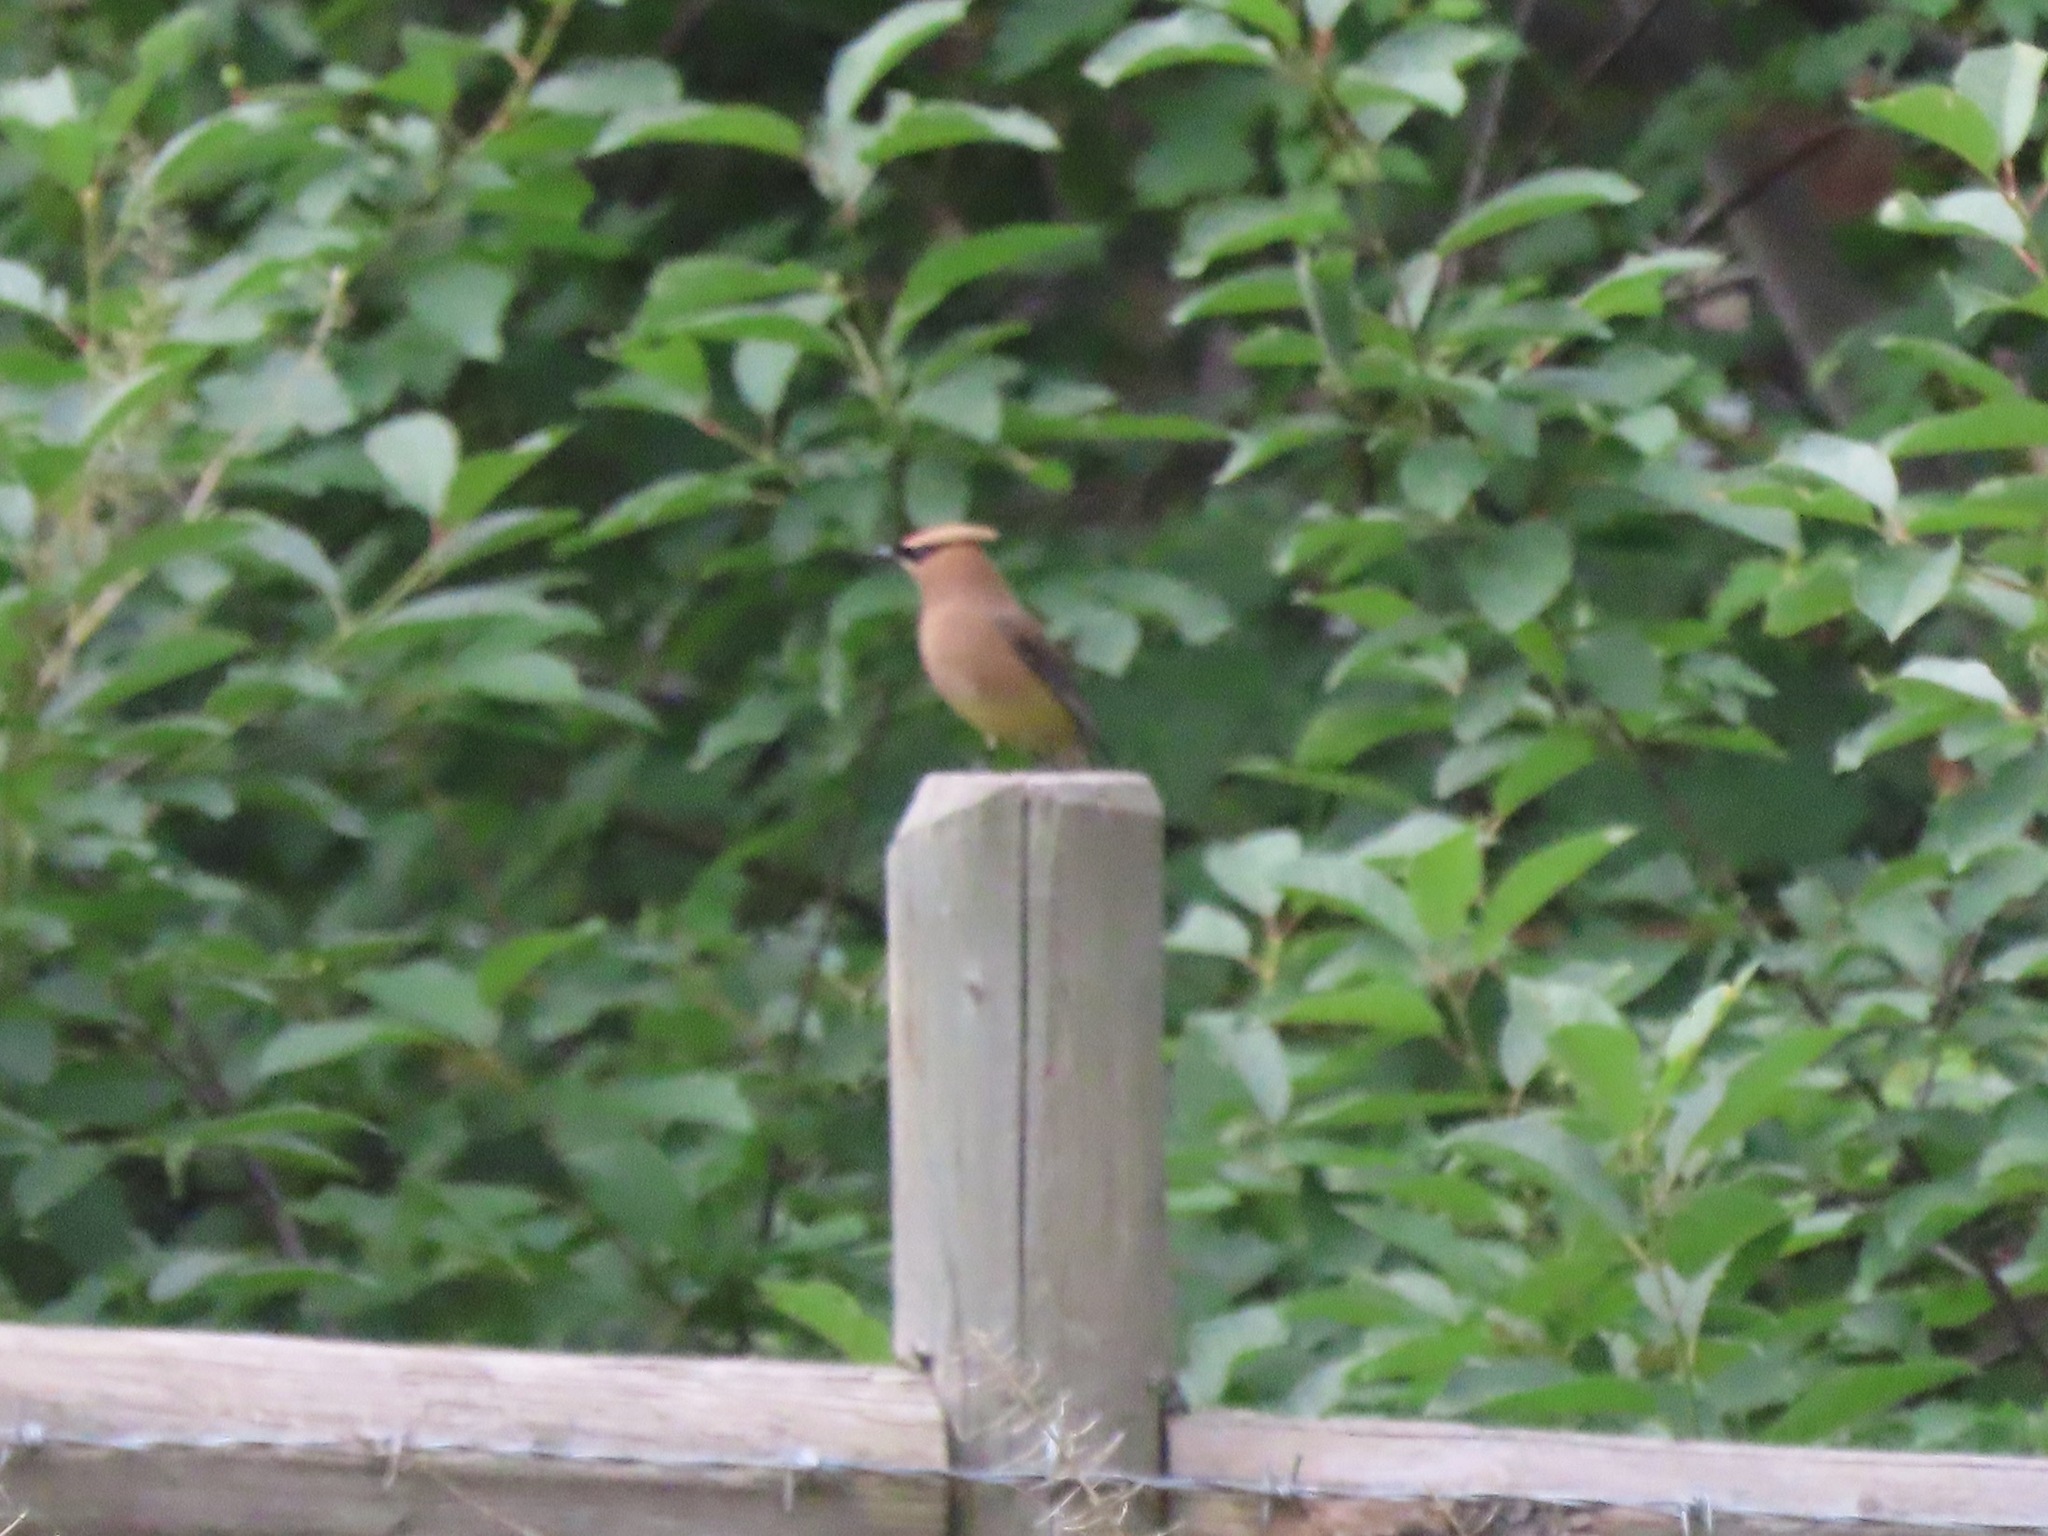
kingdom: Animalia
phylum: Chordata
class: Aves
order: Passeriformes
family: Bombycillidae
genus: Bombycilla
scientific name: Bombycilla cedrorum
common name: Cedar waxwing
